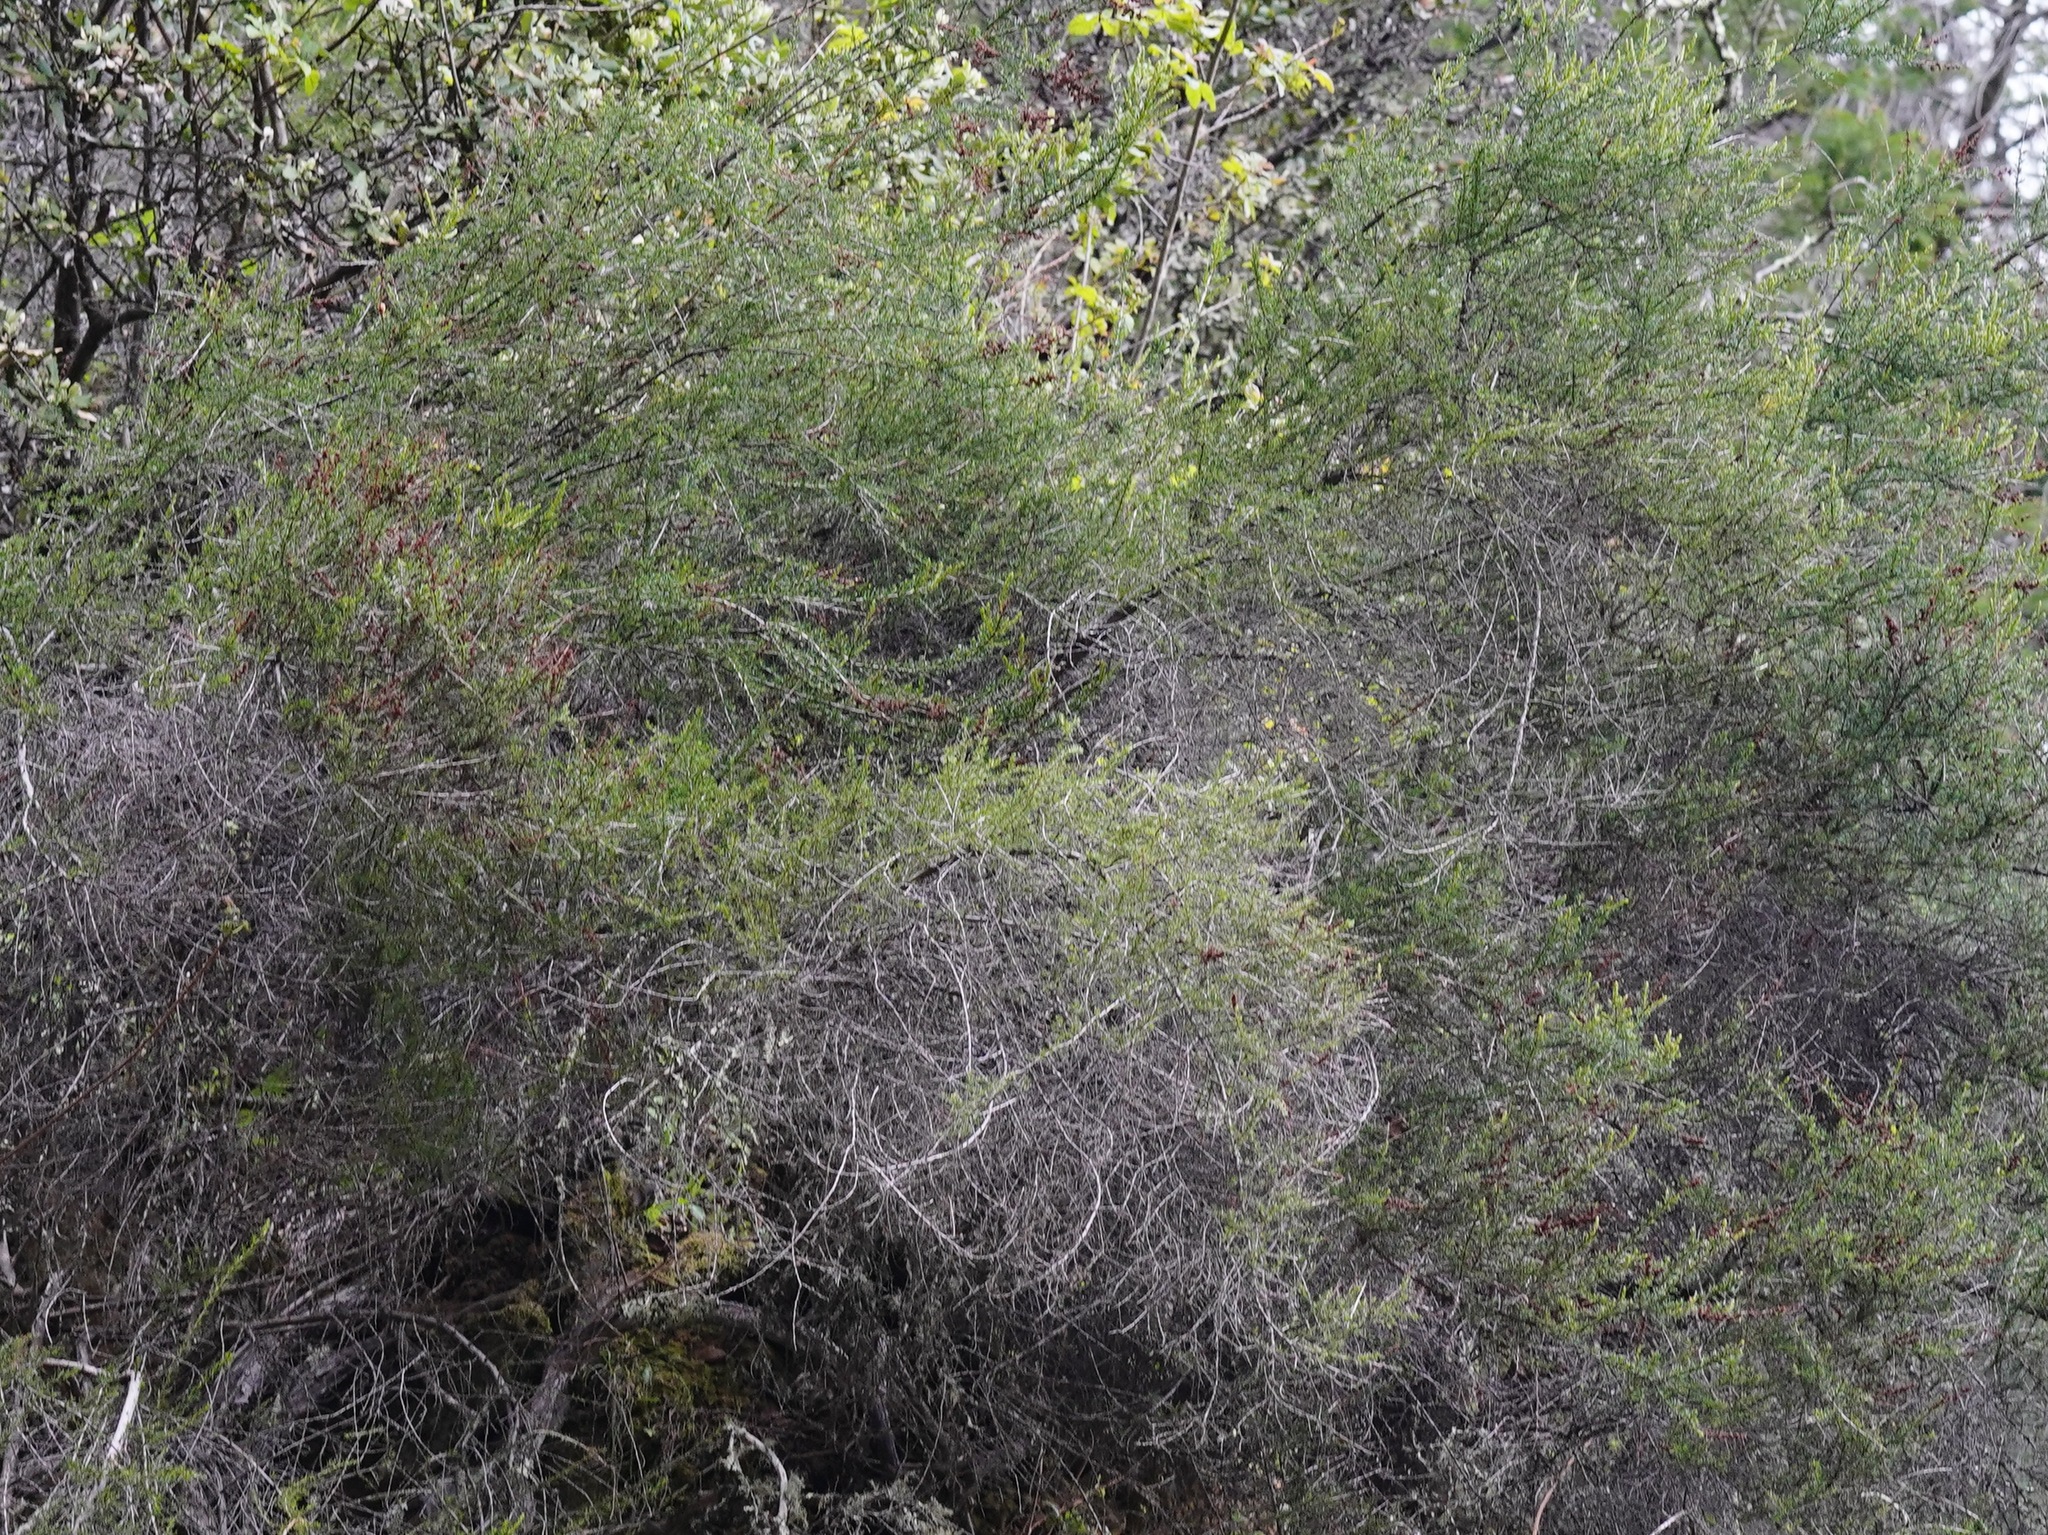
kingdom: Plantae
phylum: Tracheophyta
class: Magnoliopsida
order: Rosales
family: Rosaceae
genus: Adenostoma
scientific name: Adenostoma fasciculatum
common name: Chamise
